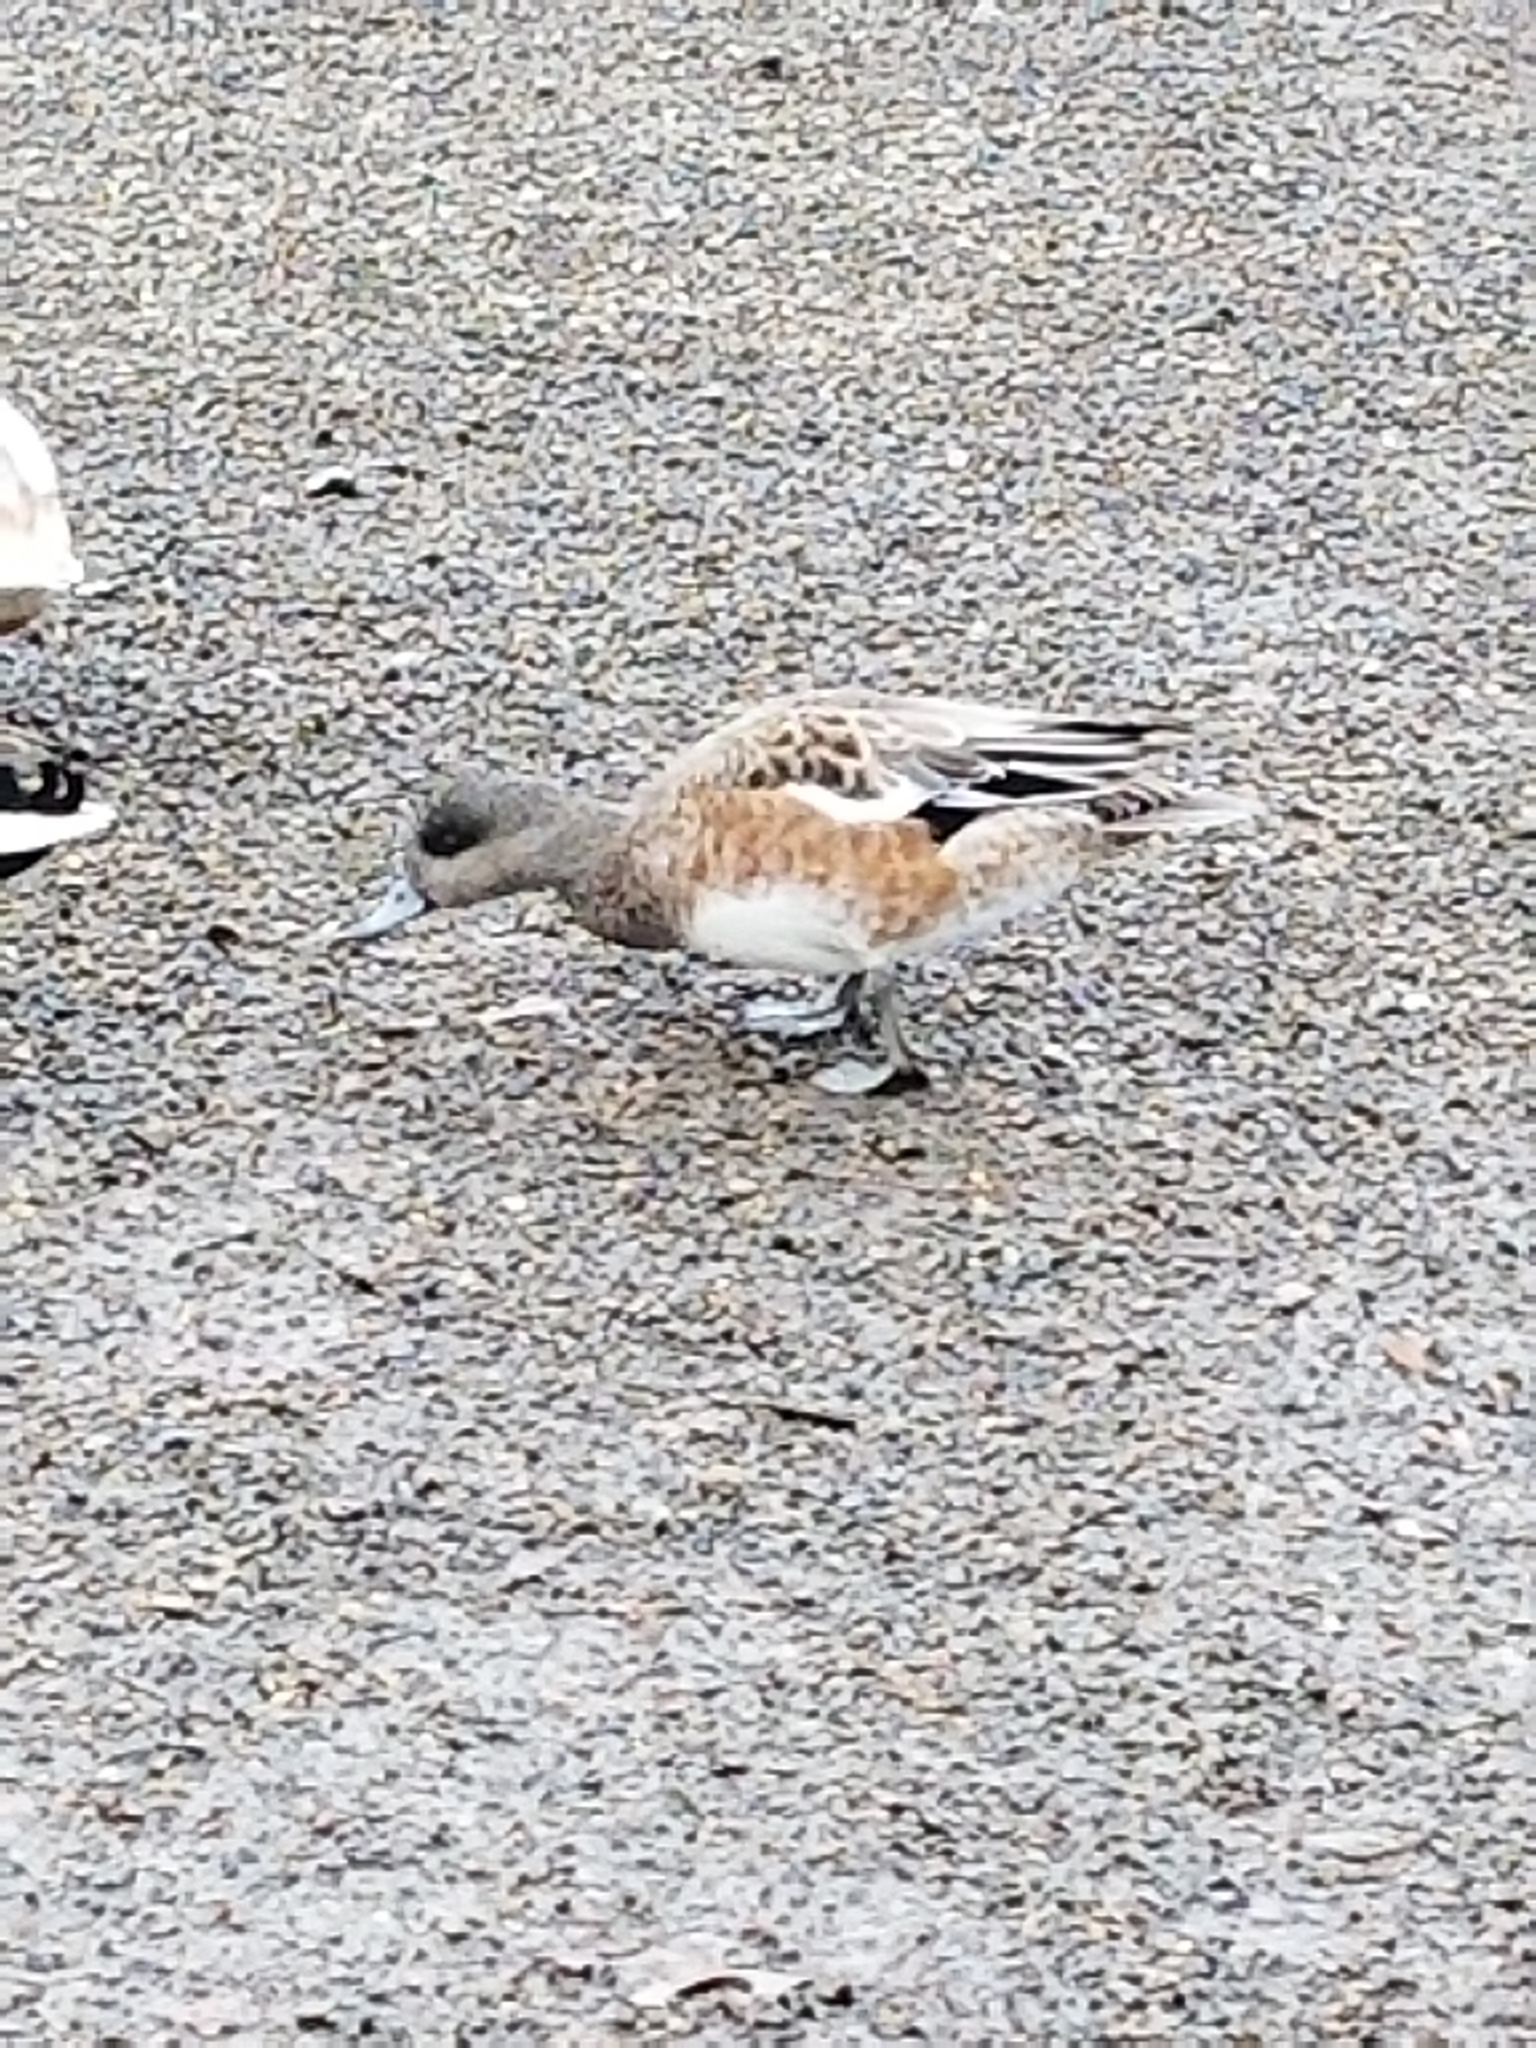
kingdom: Animalia
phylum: Chordata
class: Aves
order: Anseriformes
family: Anatidae
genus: Mareca
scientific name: Mareca americana
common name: American wigeon
